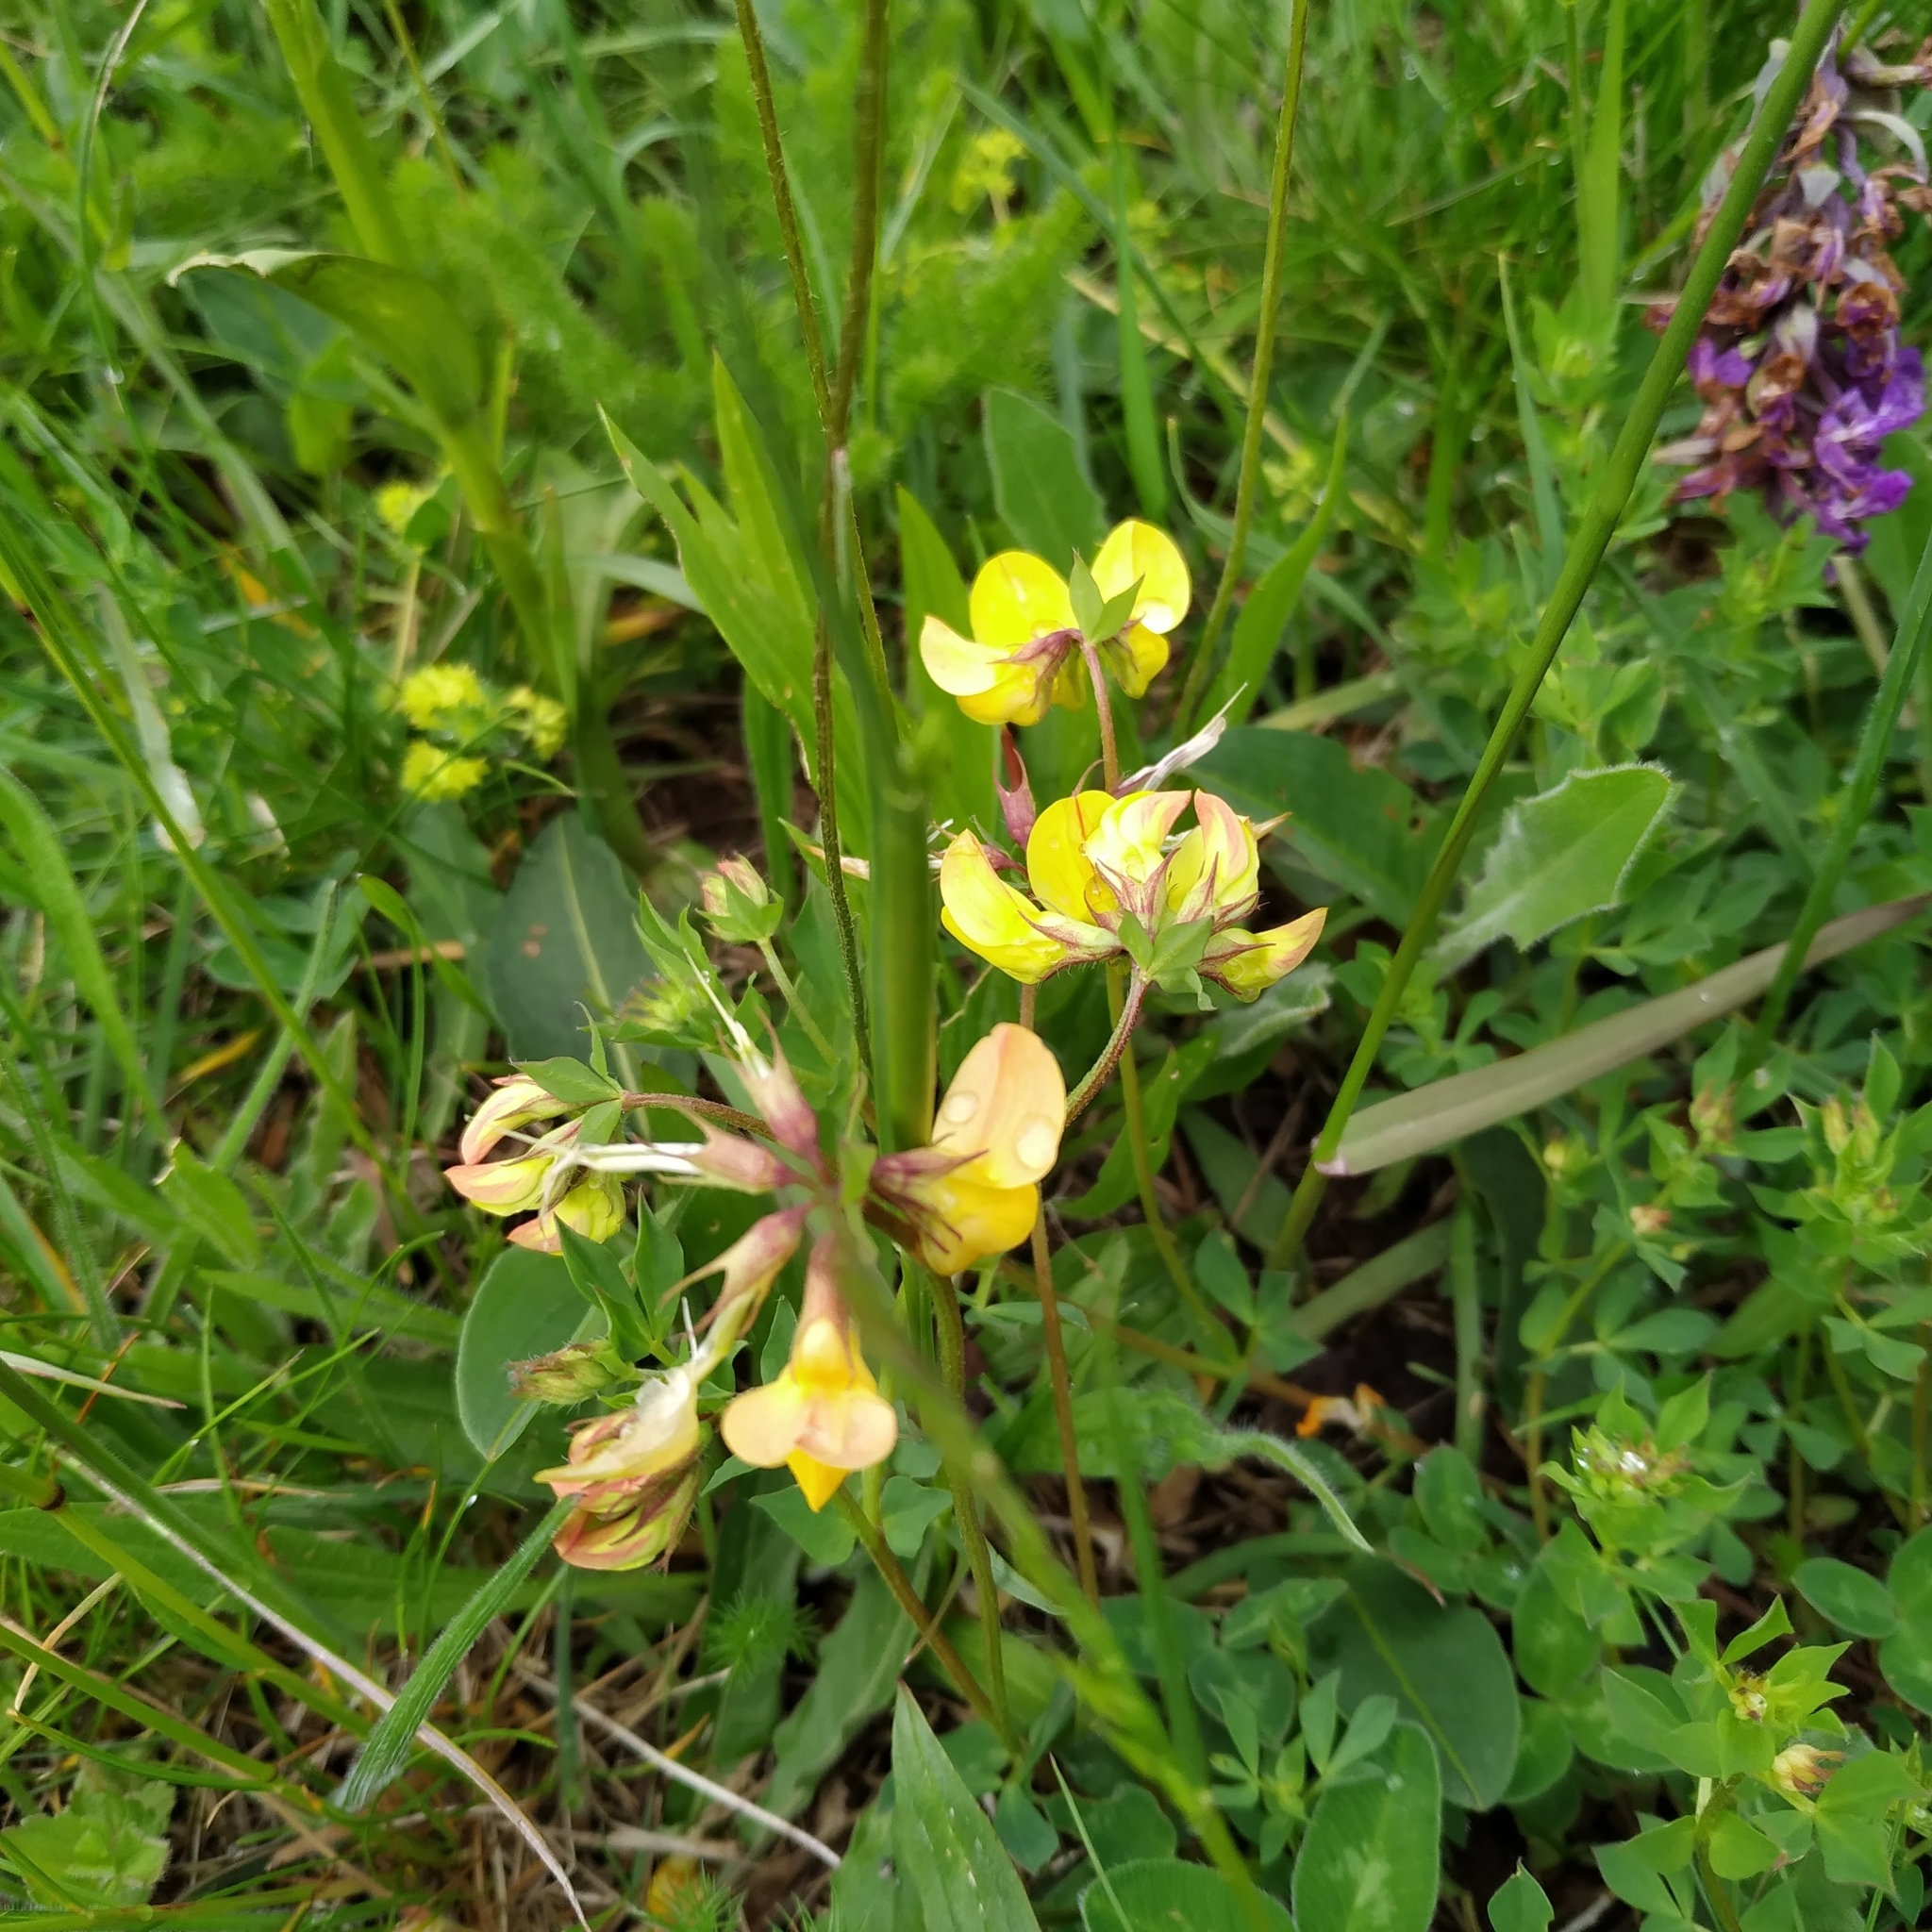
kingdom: Plantae
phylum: Tracheophyta
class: Magnoliopsida
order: Fabales
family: Fabaceae
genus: Lotus
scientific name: Lotus corniculatus
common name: Common bird's-foot-trefoil
